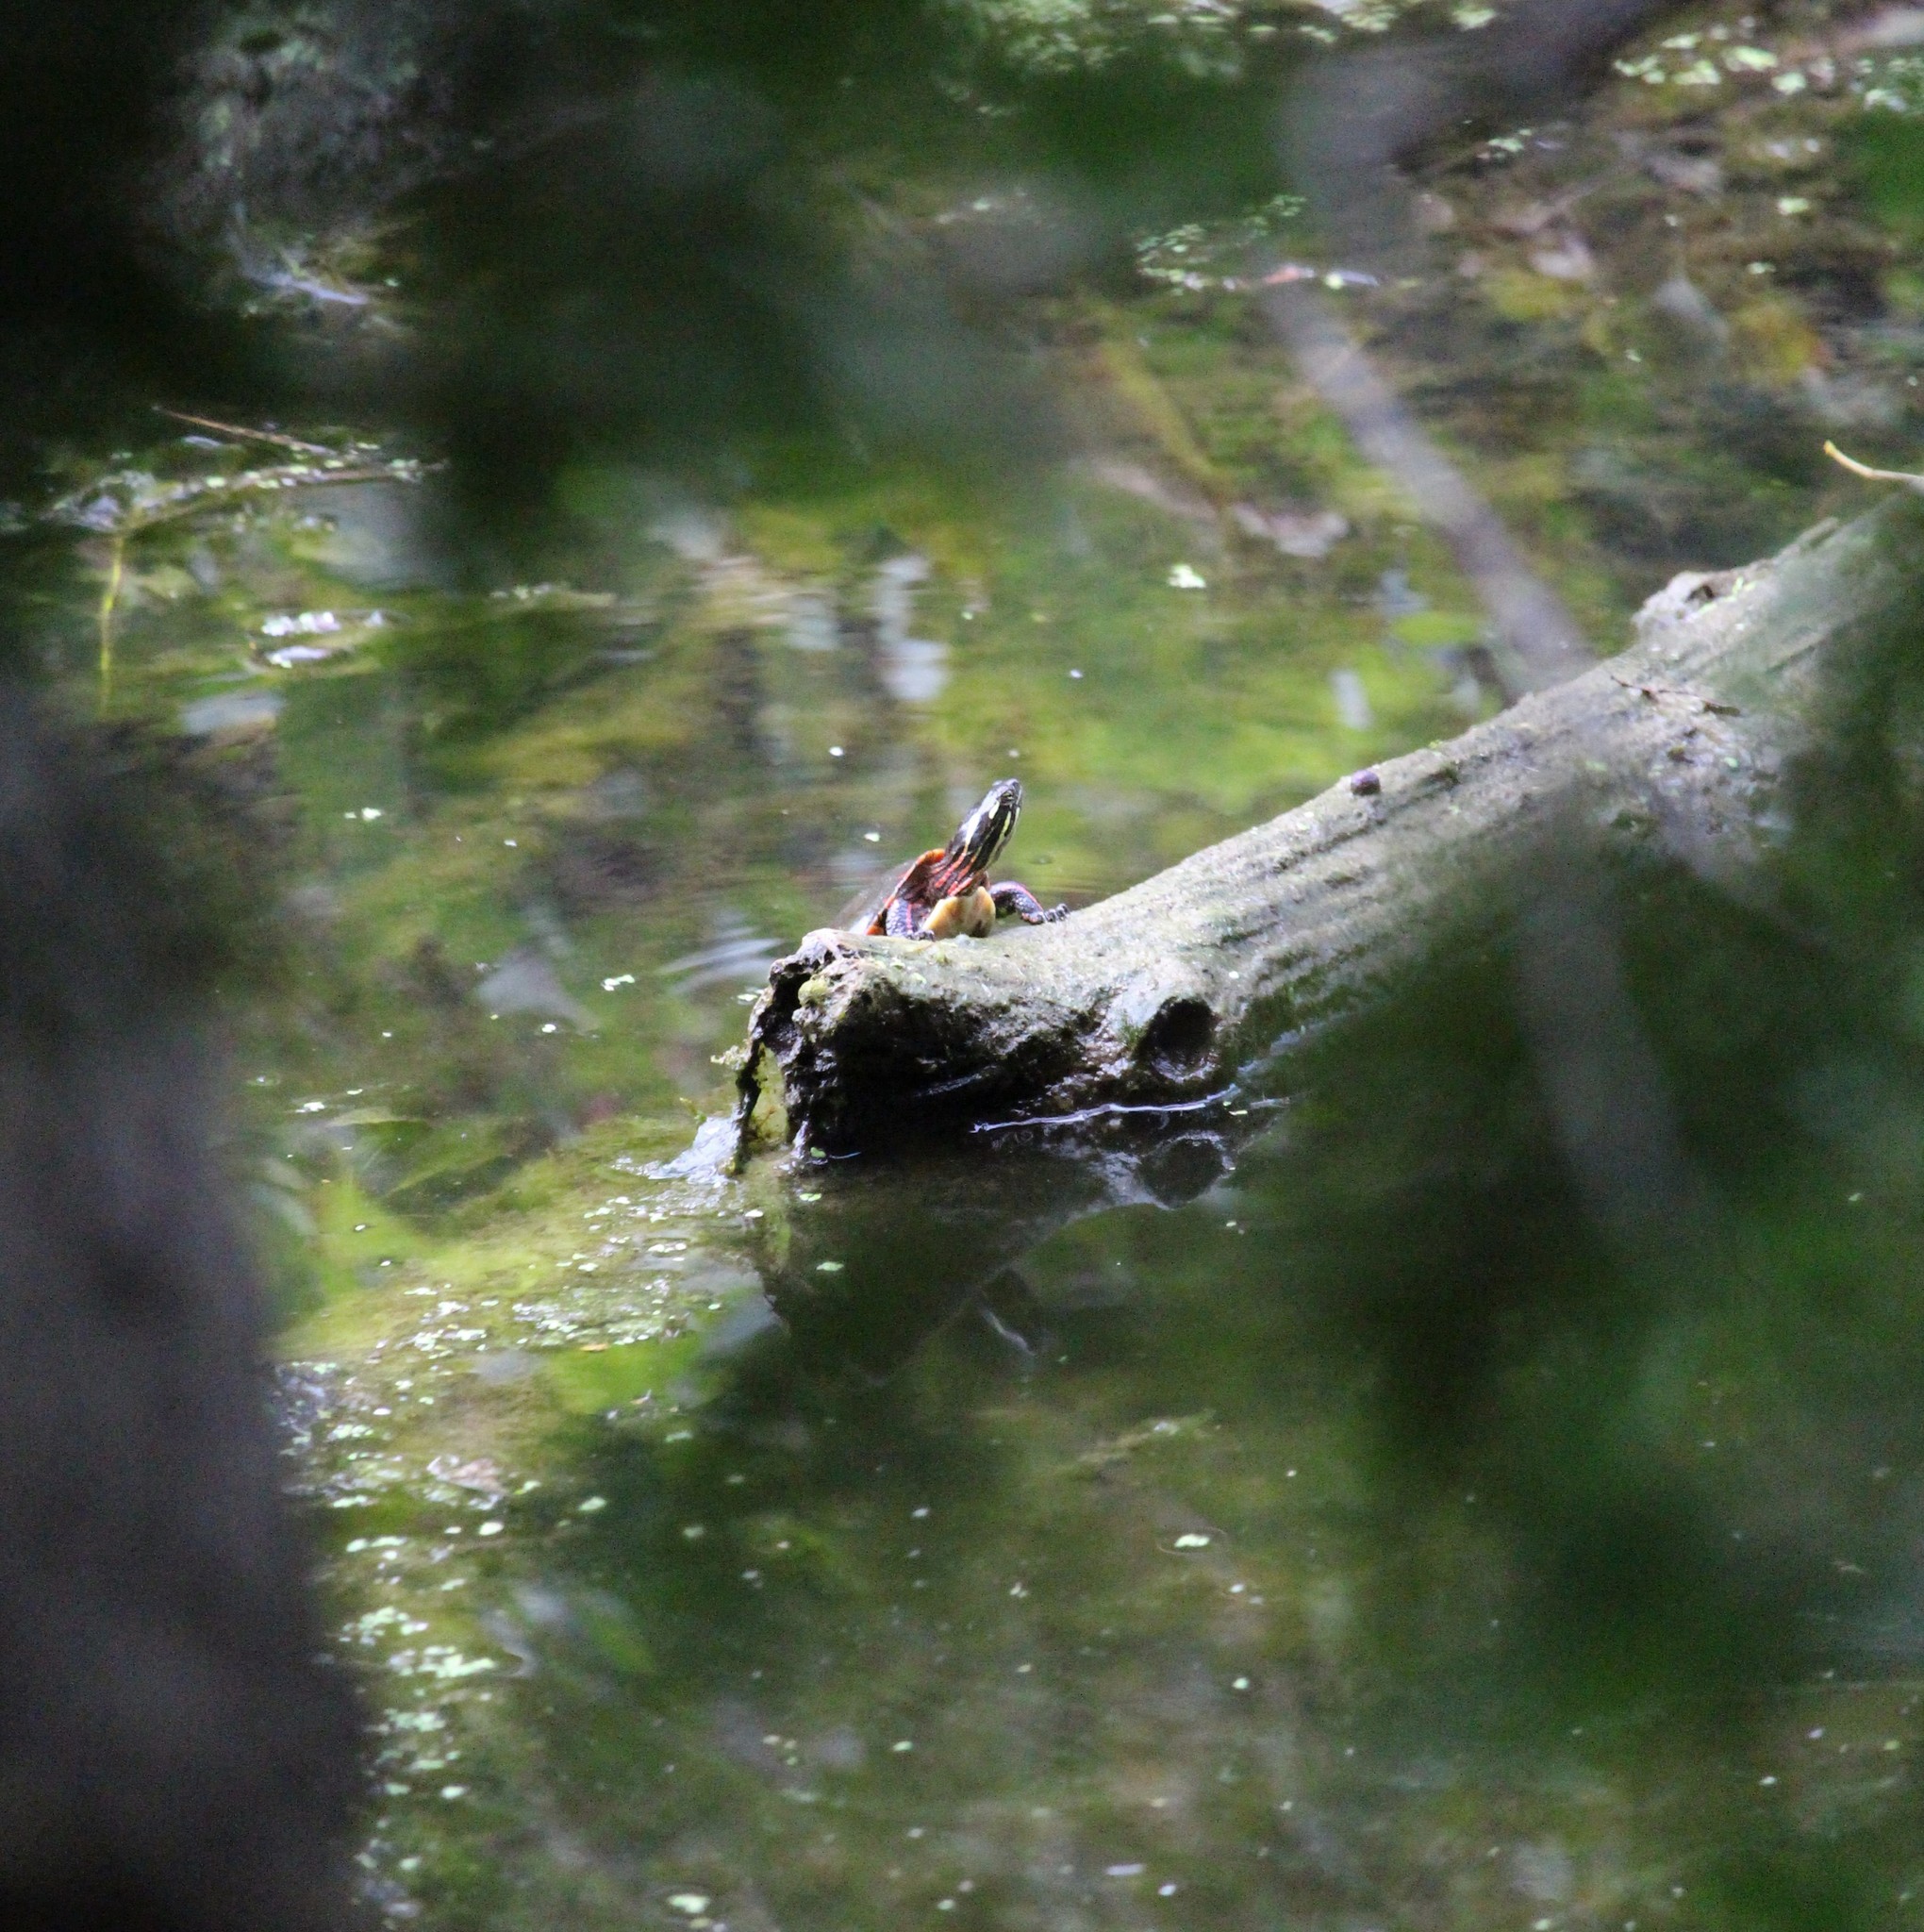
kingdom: Animalia
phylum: Chordata
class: Testudines
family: Emydidae
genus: Chrysemys
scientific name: Chrysemys picta
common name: Painted turtle
